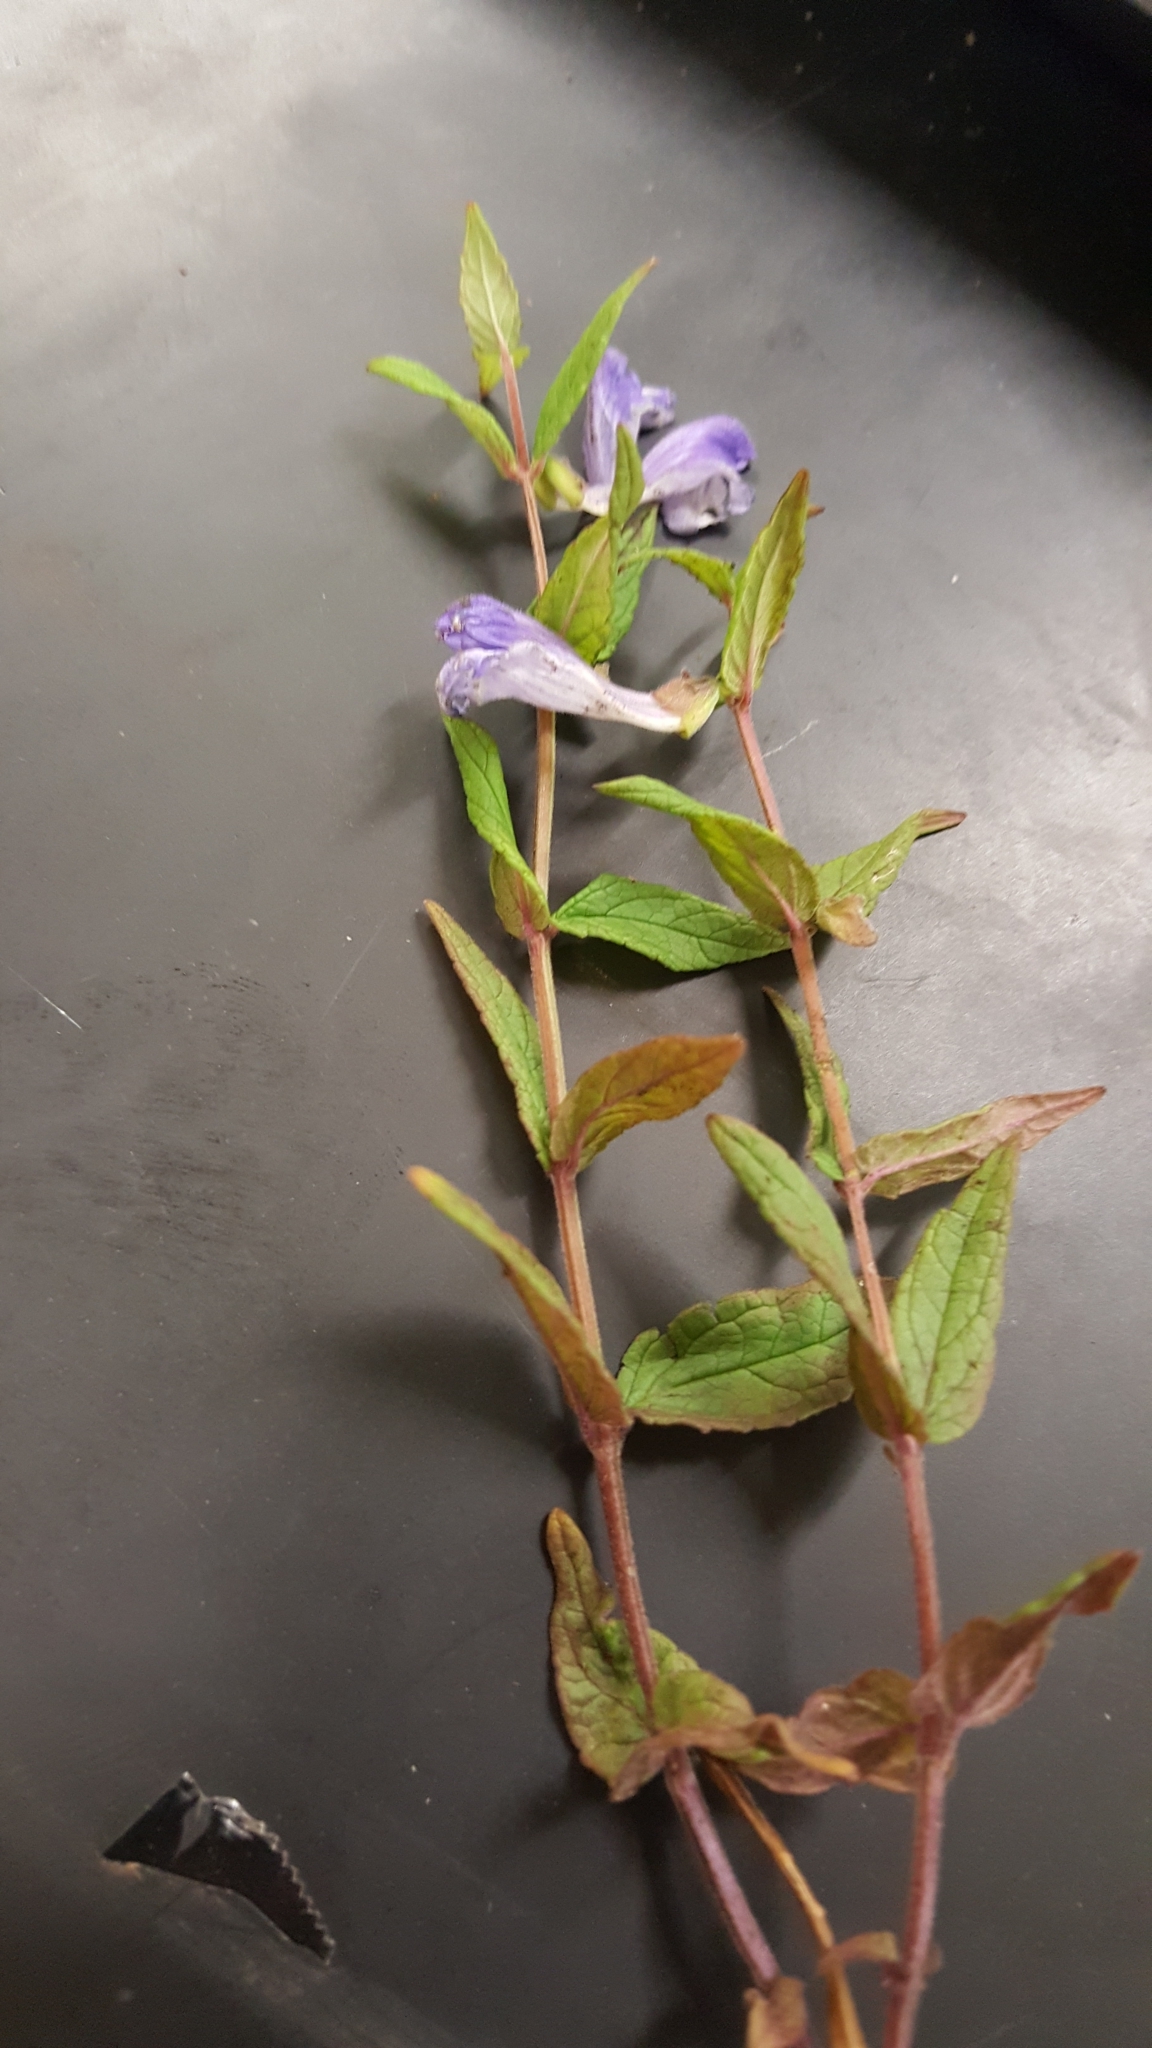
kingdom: Plantae
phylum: Tracheophyta
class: Magnoliopsida
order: Lamiales
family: Lamiaceae
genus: Scutellaria
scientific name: Scutellaria galericulata
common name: Skullcap
